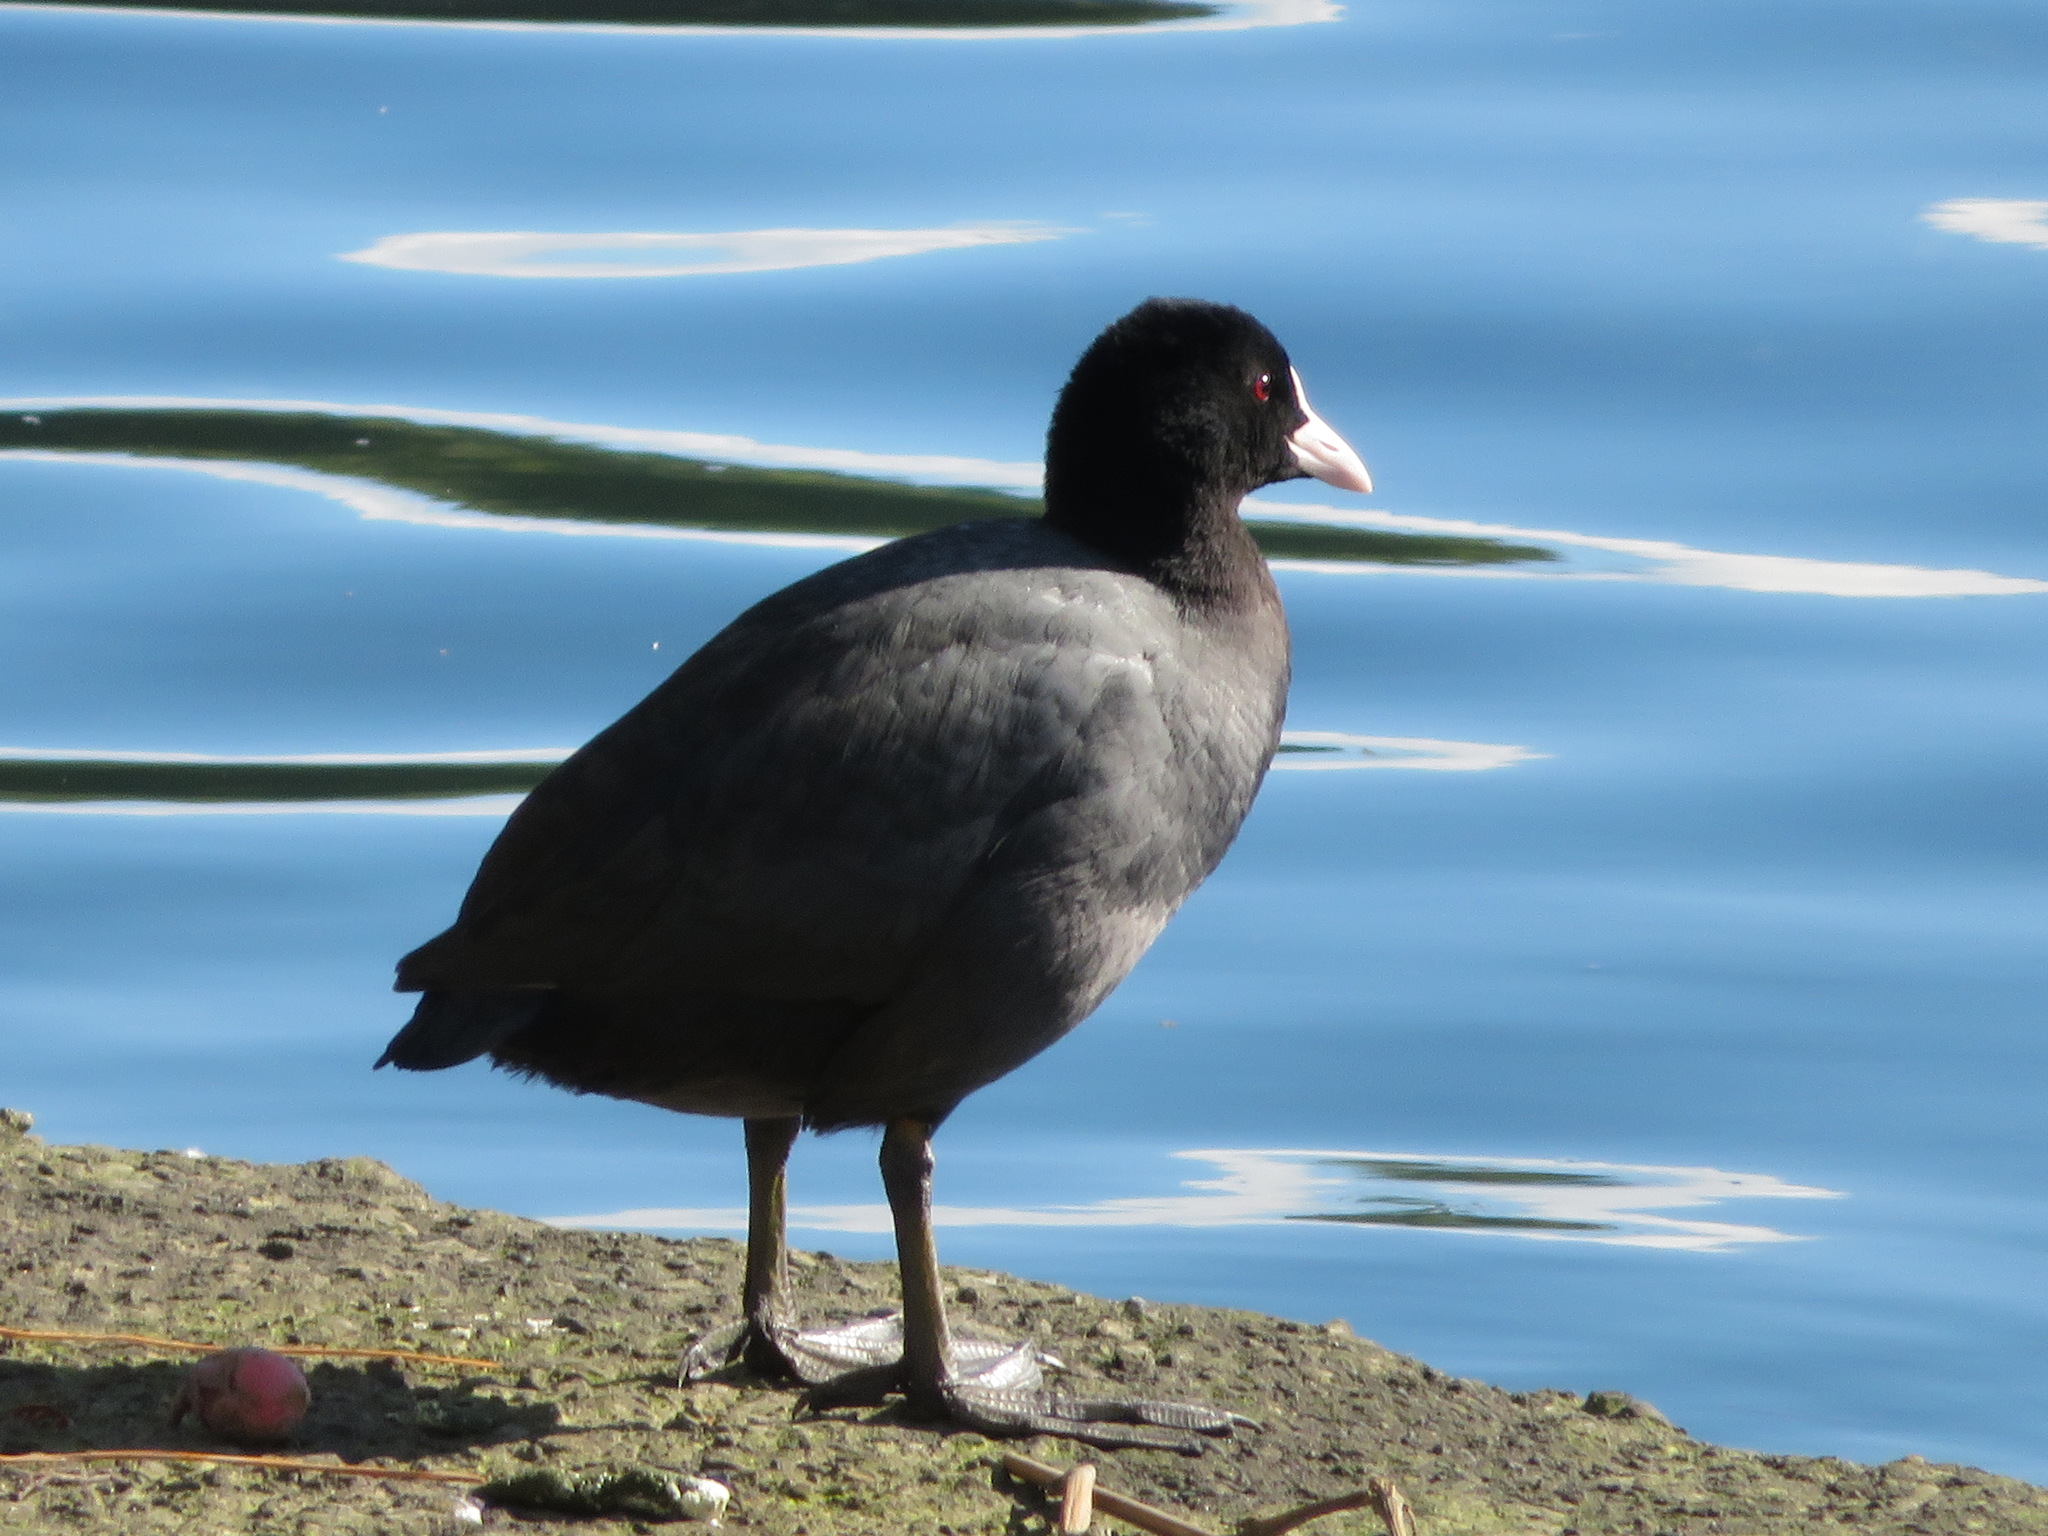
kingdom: Animalia
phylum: Chordata
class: Aves
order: Gruiformes
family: Rallidae
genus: Fulica
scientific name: Fulica atra
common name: Eurasian coot
